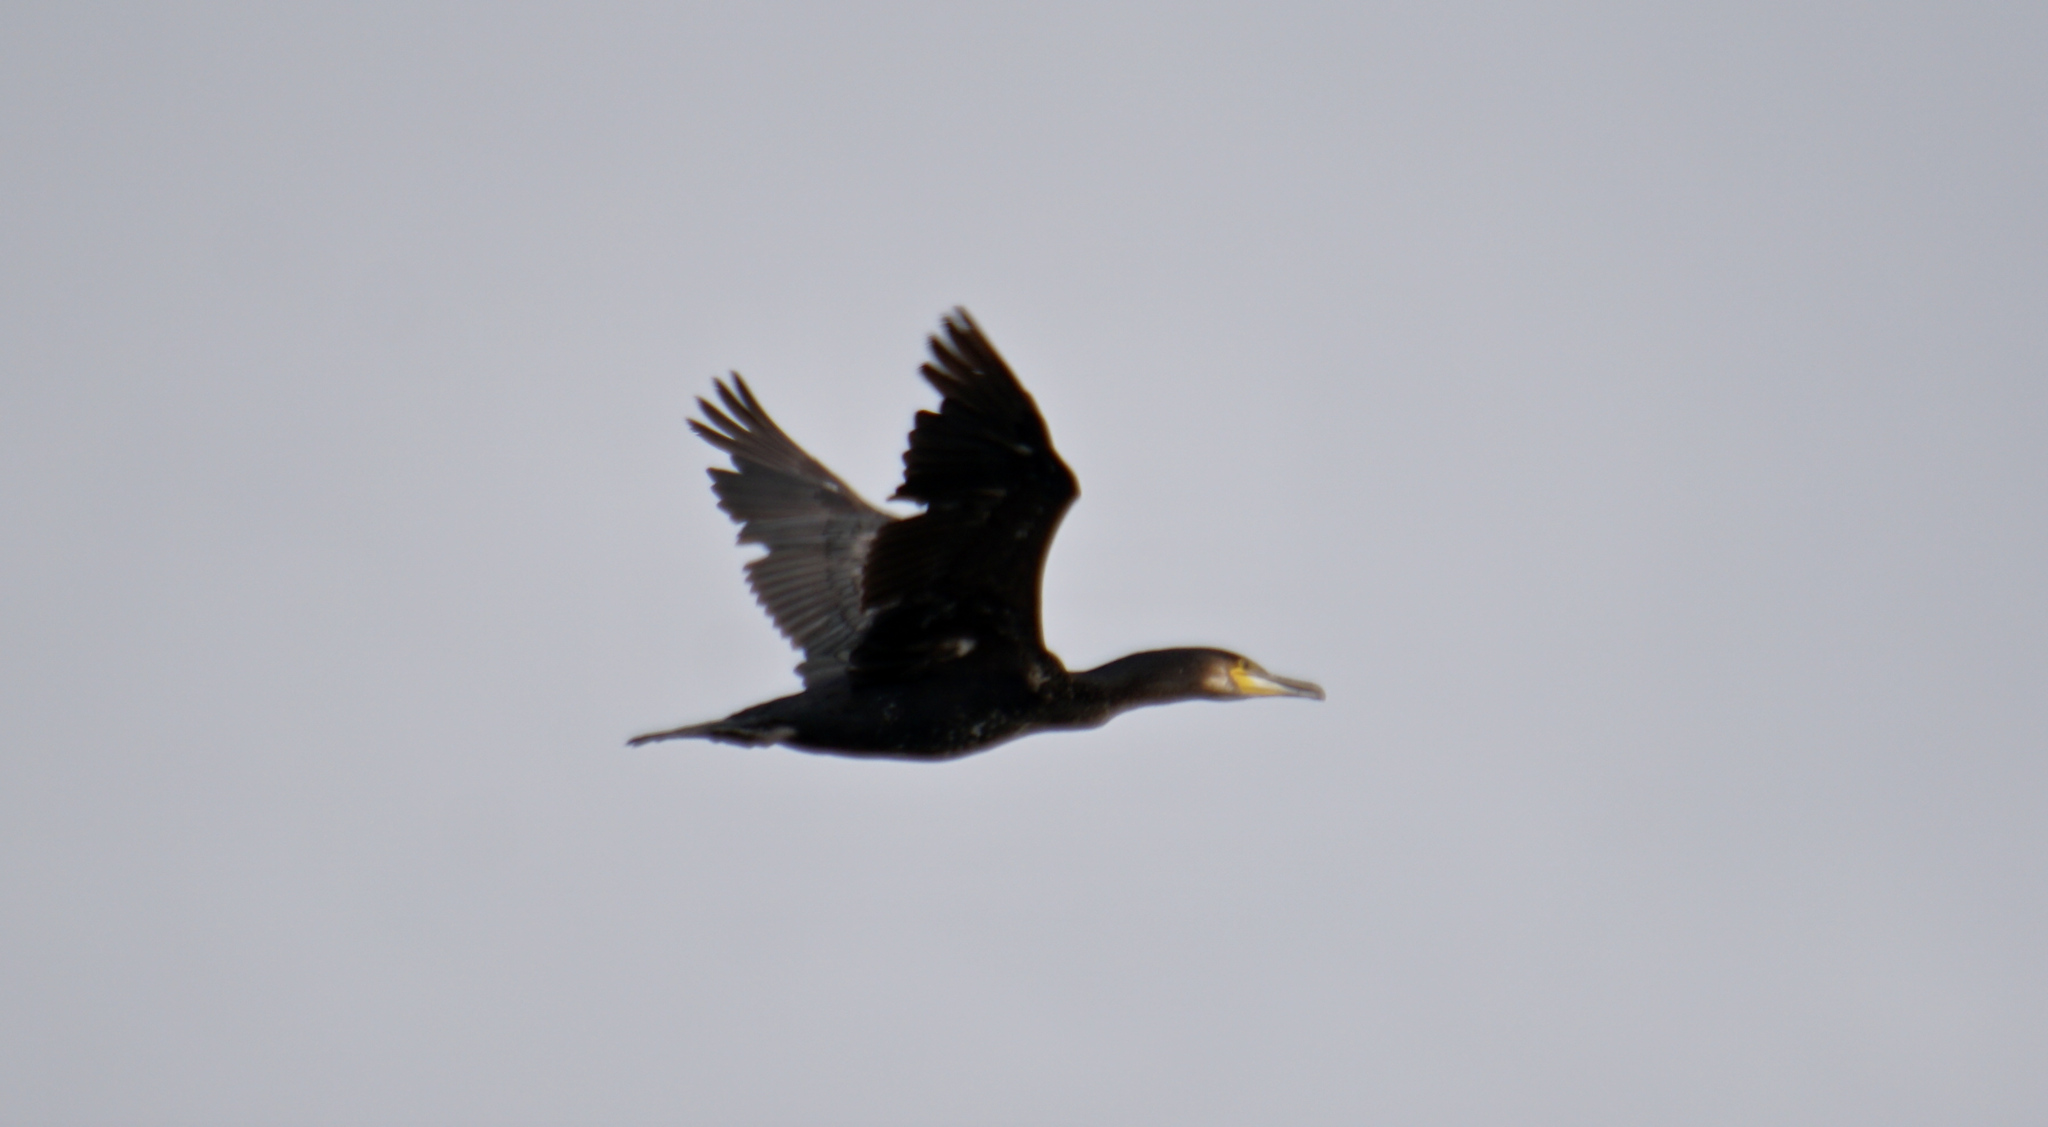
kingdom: Animalia
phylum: Chordata
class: Aves
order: Suliformes
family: Phalacrocoracidae
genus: Phalacrocorax
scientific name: Phalacrocorax carbo
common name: Great cormorant
